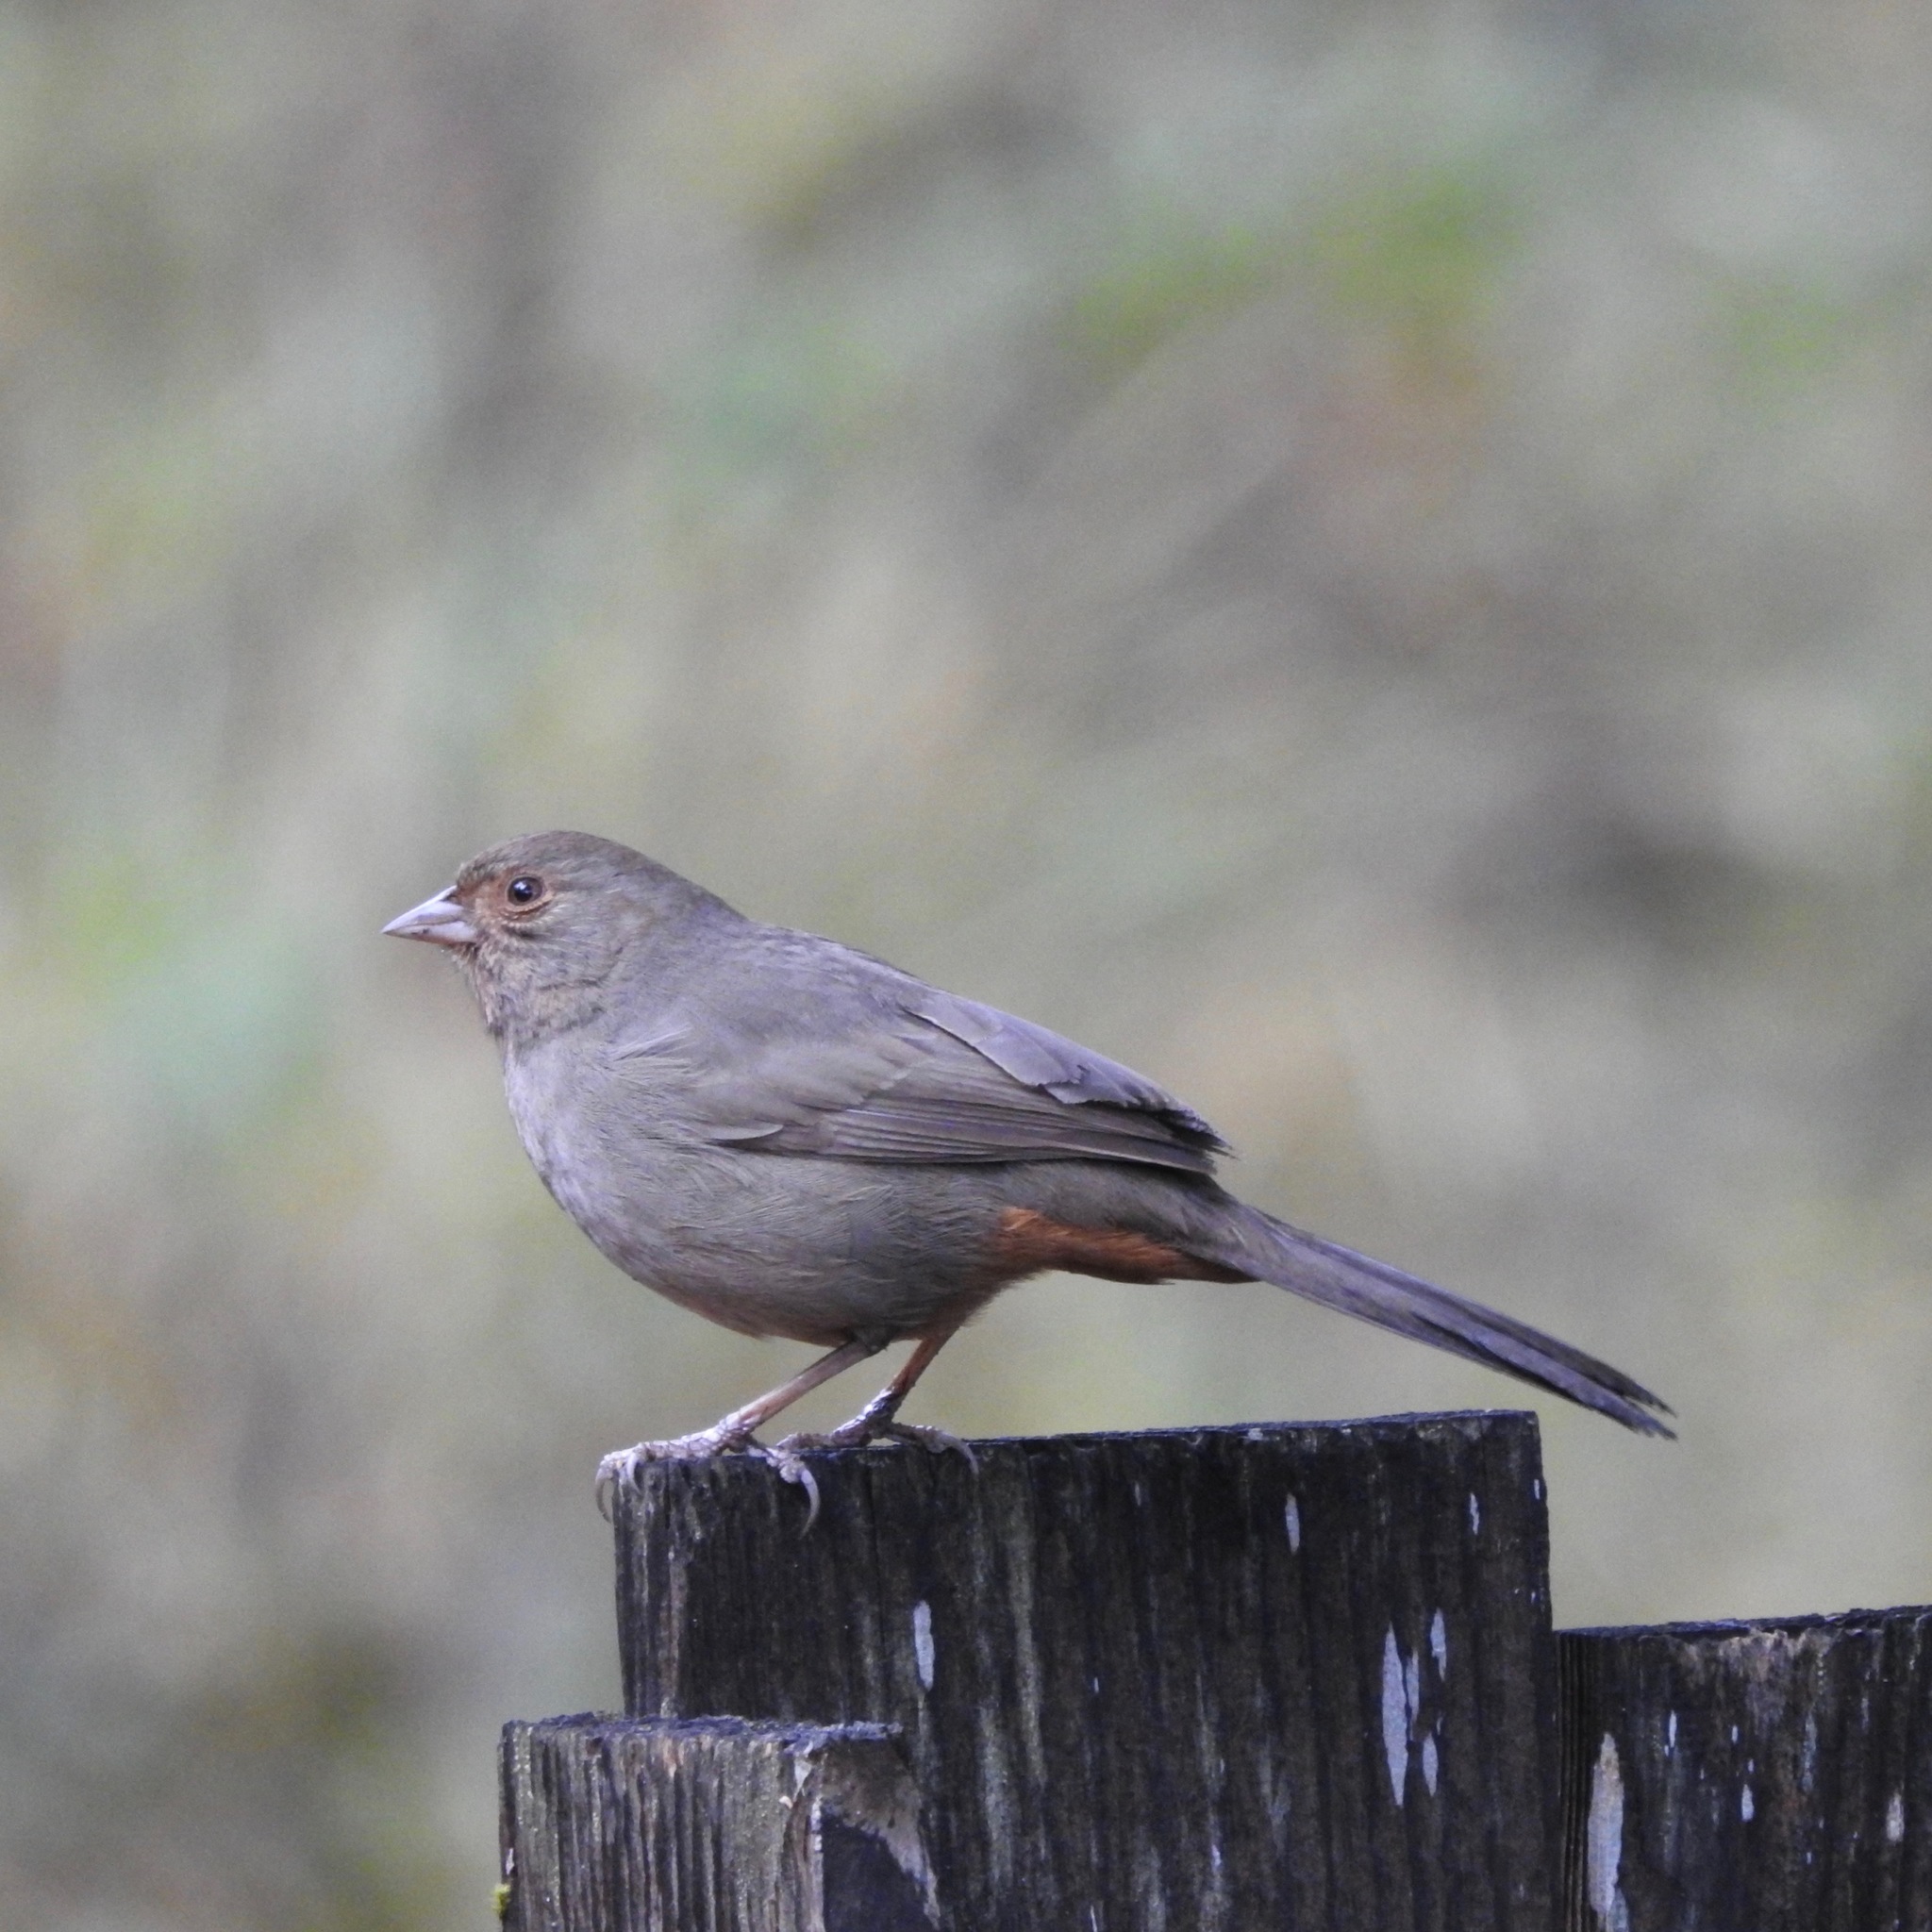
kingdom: Animalia
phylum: Chordata
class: Aves
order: Passeriformes
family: Passerellidae
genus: Melozone
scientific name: Melozone crissalis
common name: California towhee
